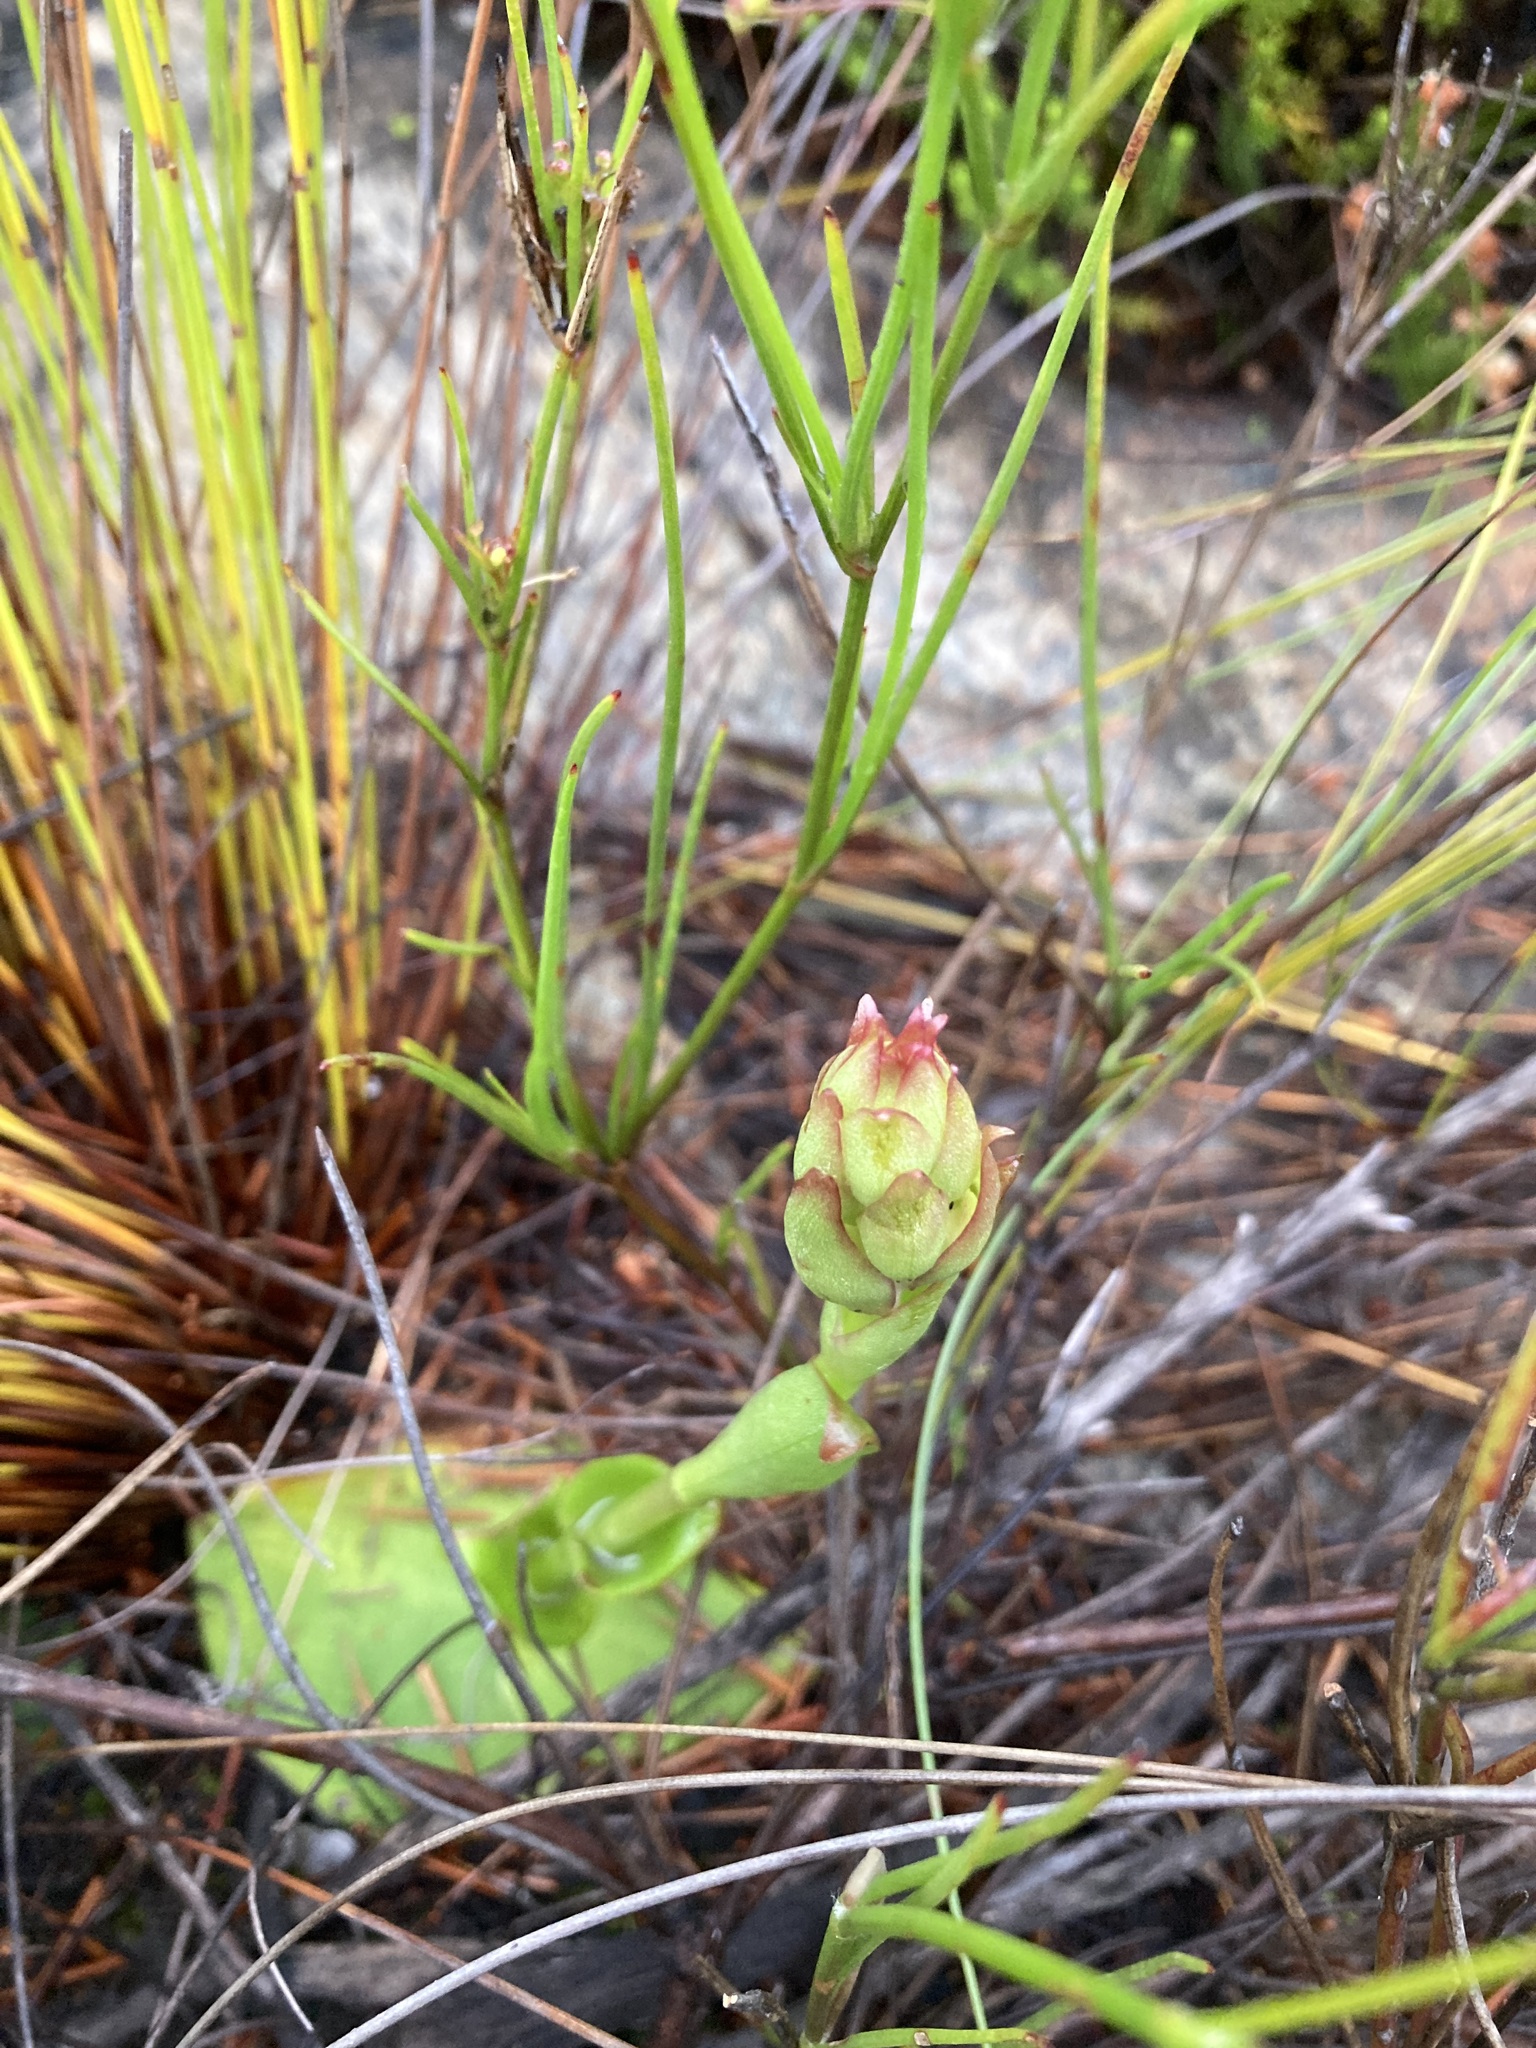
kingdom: Plantae
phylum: Tracheophyta
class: Liliopsida
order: Asparagales
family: Orchidaceae
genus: Satyrium
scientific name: Satyrium acuminatum
